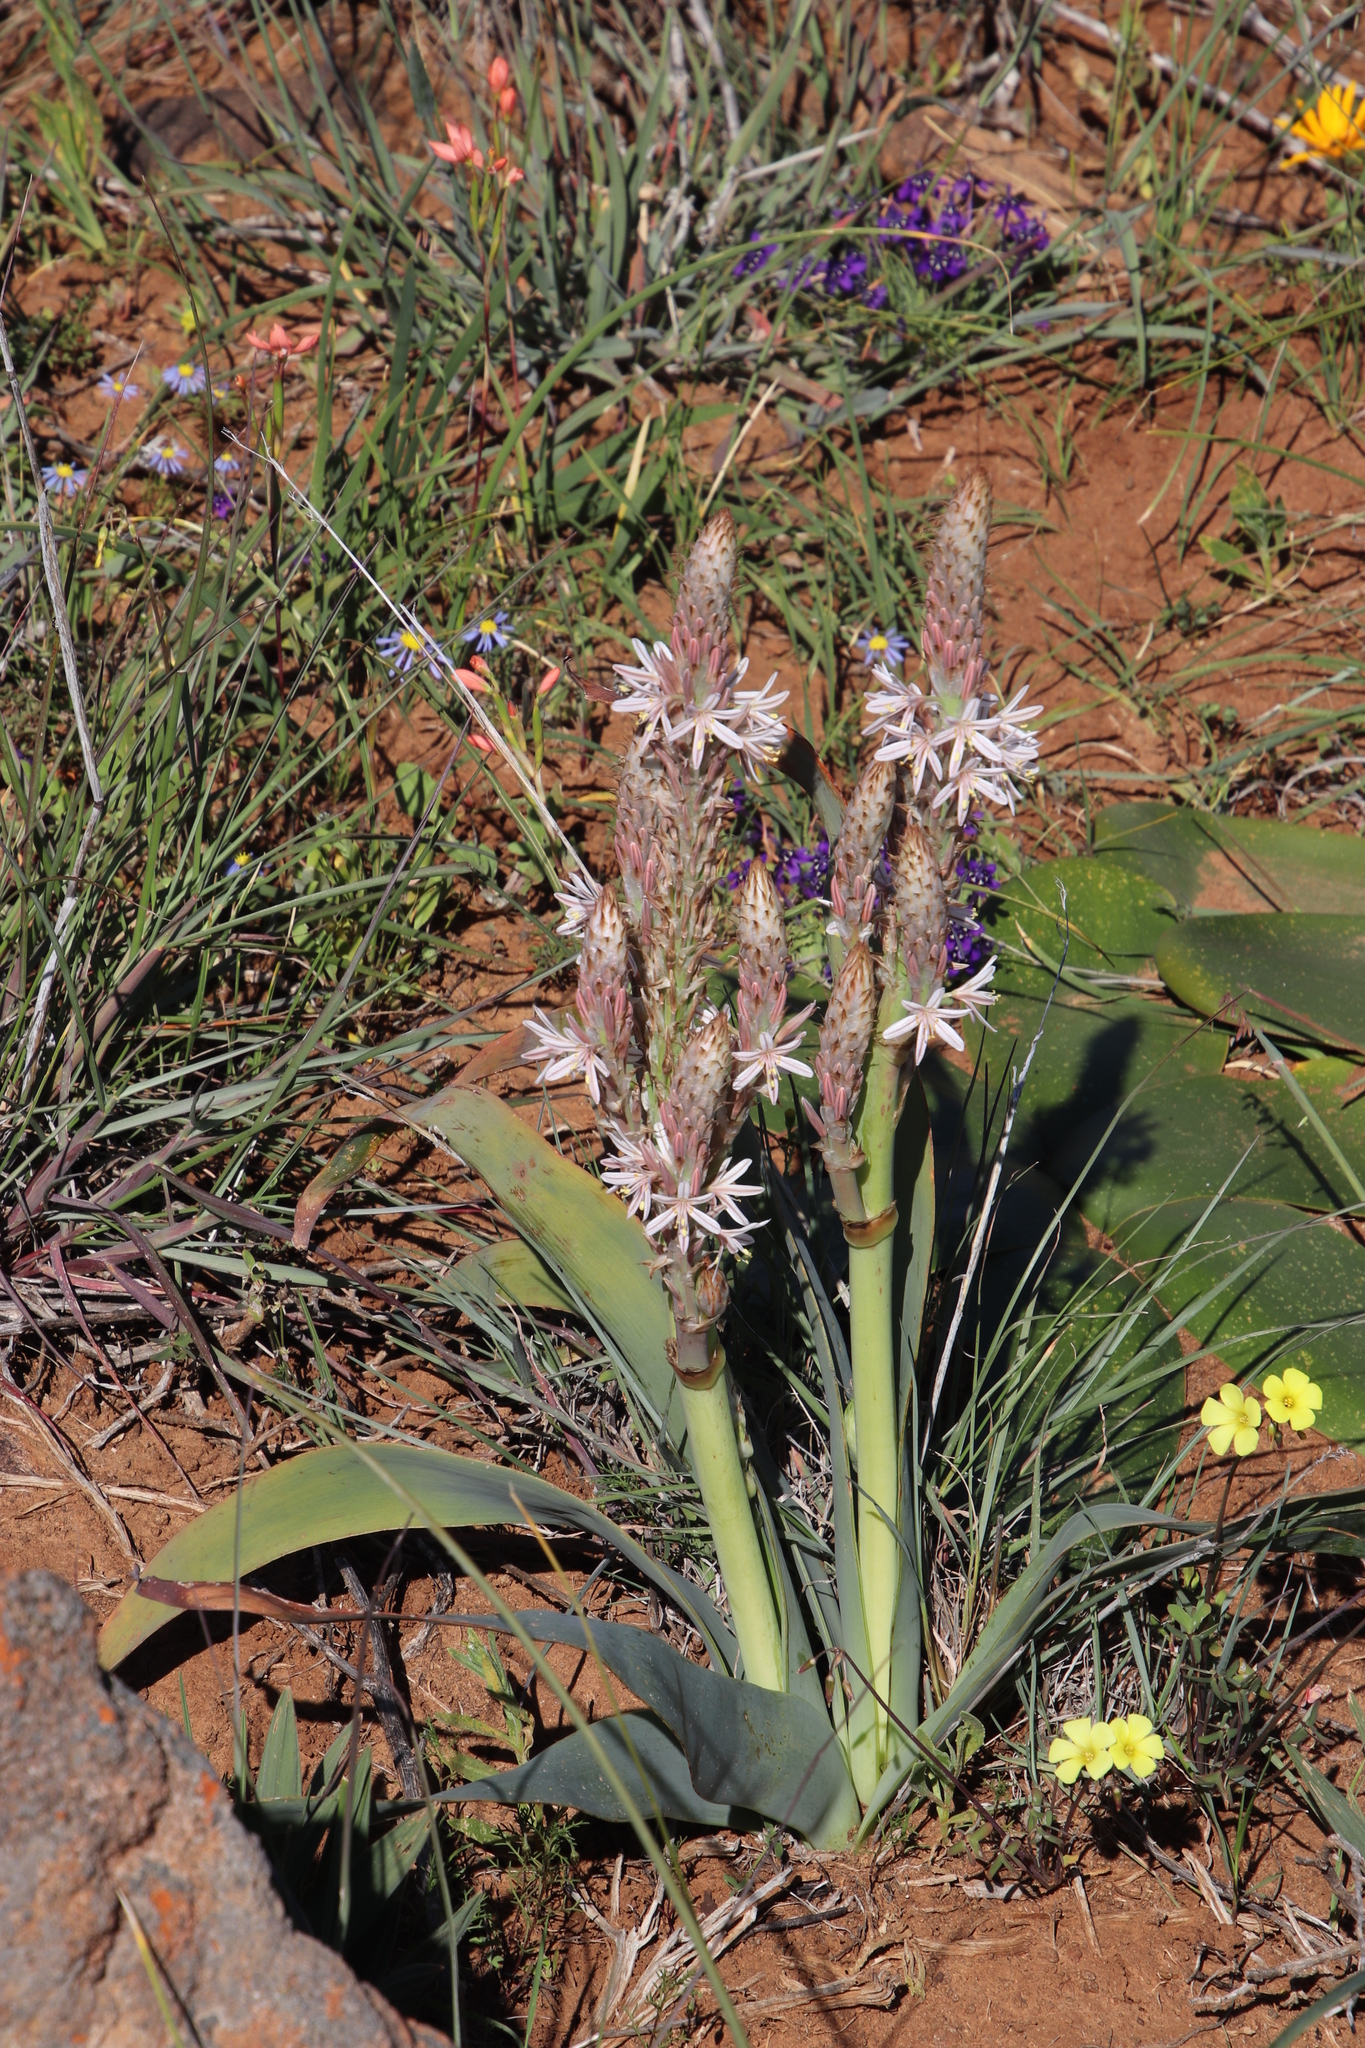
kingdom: Plantae
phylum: Tracheophyta
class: Liliopsida
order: Asparagales
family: Asphodelaceae
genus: Trachyandra
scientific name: Trachyandra falcata
